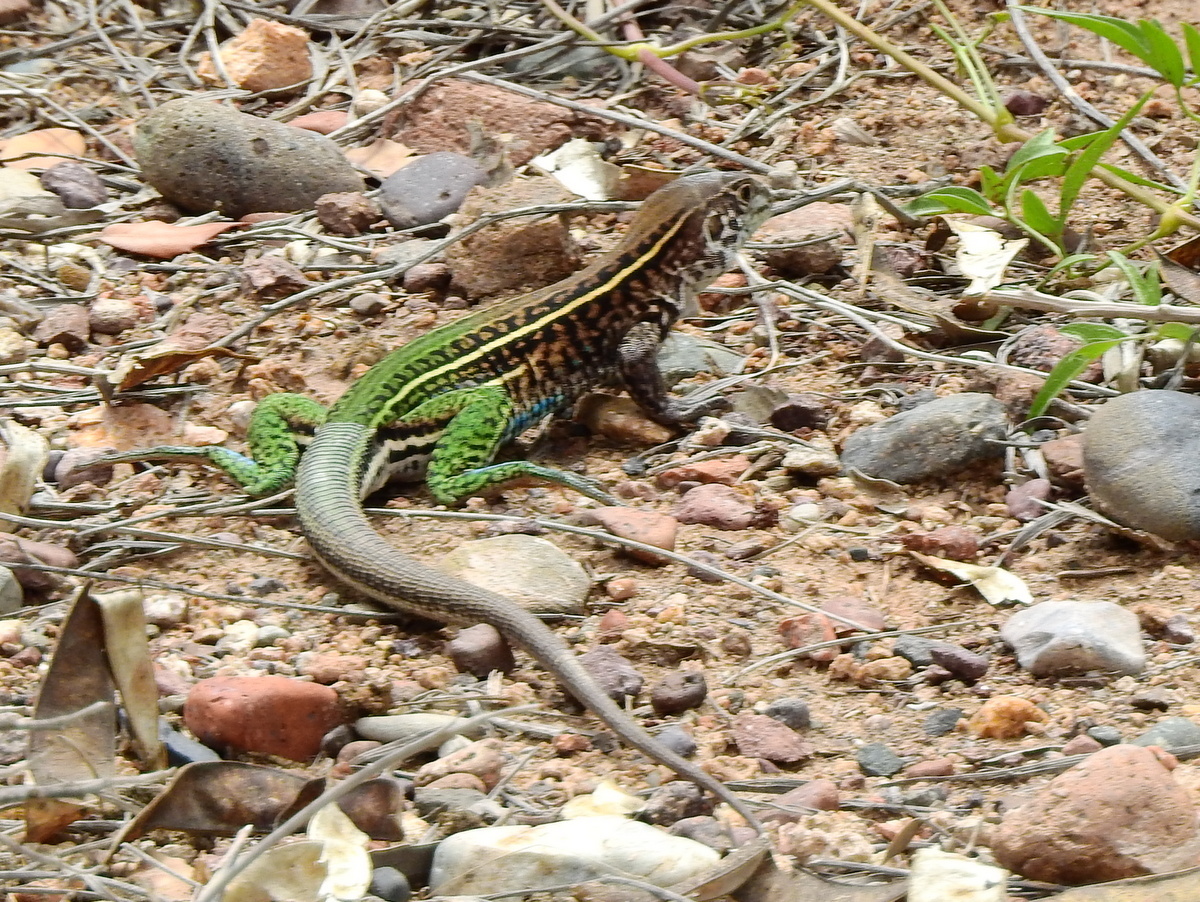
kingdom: Animalia
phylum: Chordata
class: Squamata
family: Teiidae
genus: Teius
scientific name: Teius teyou
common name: Four-toed tegu
